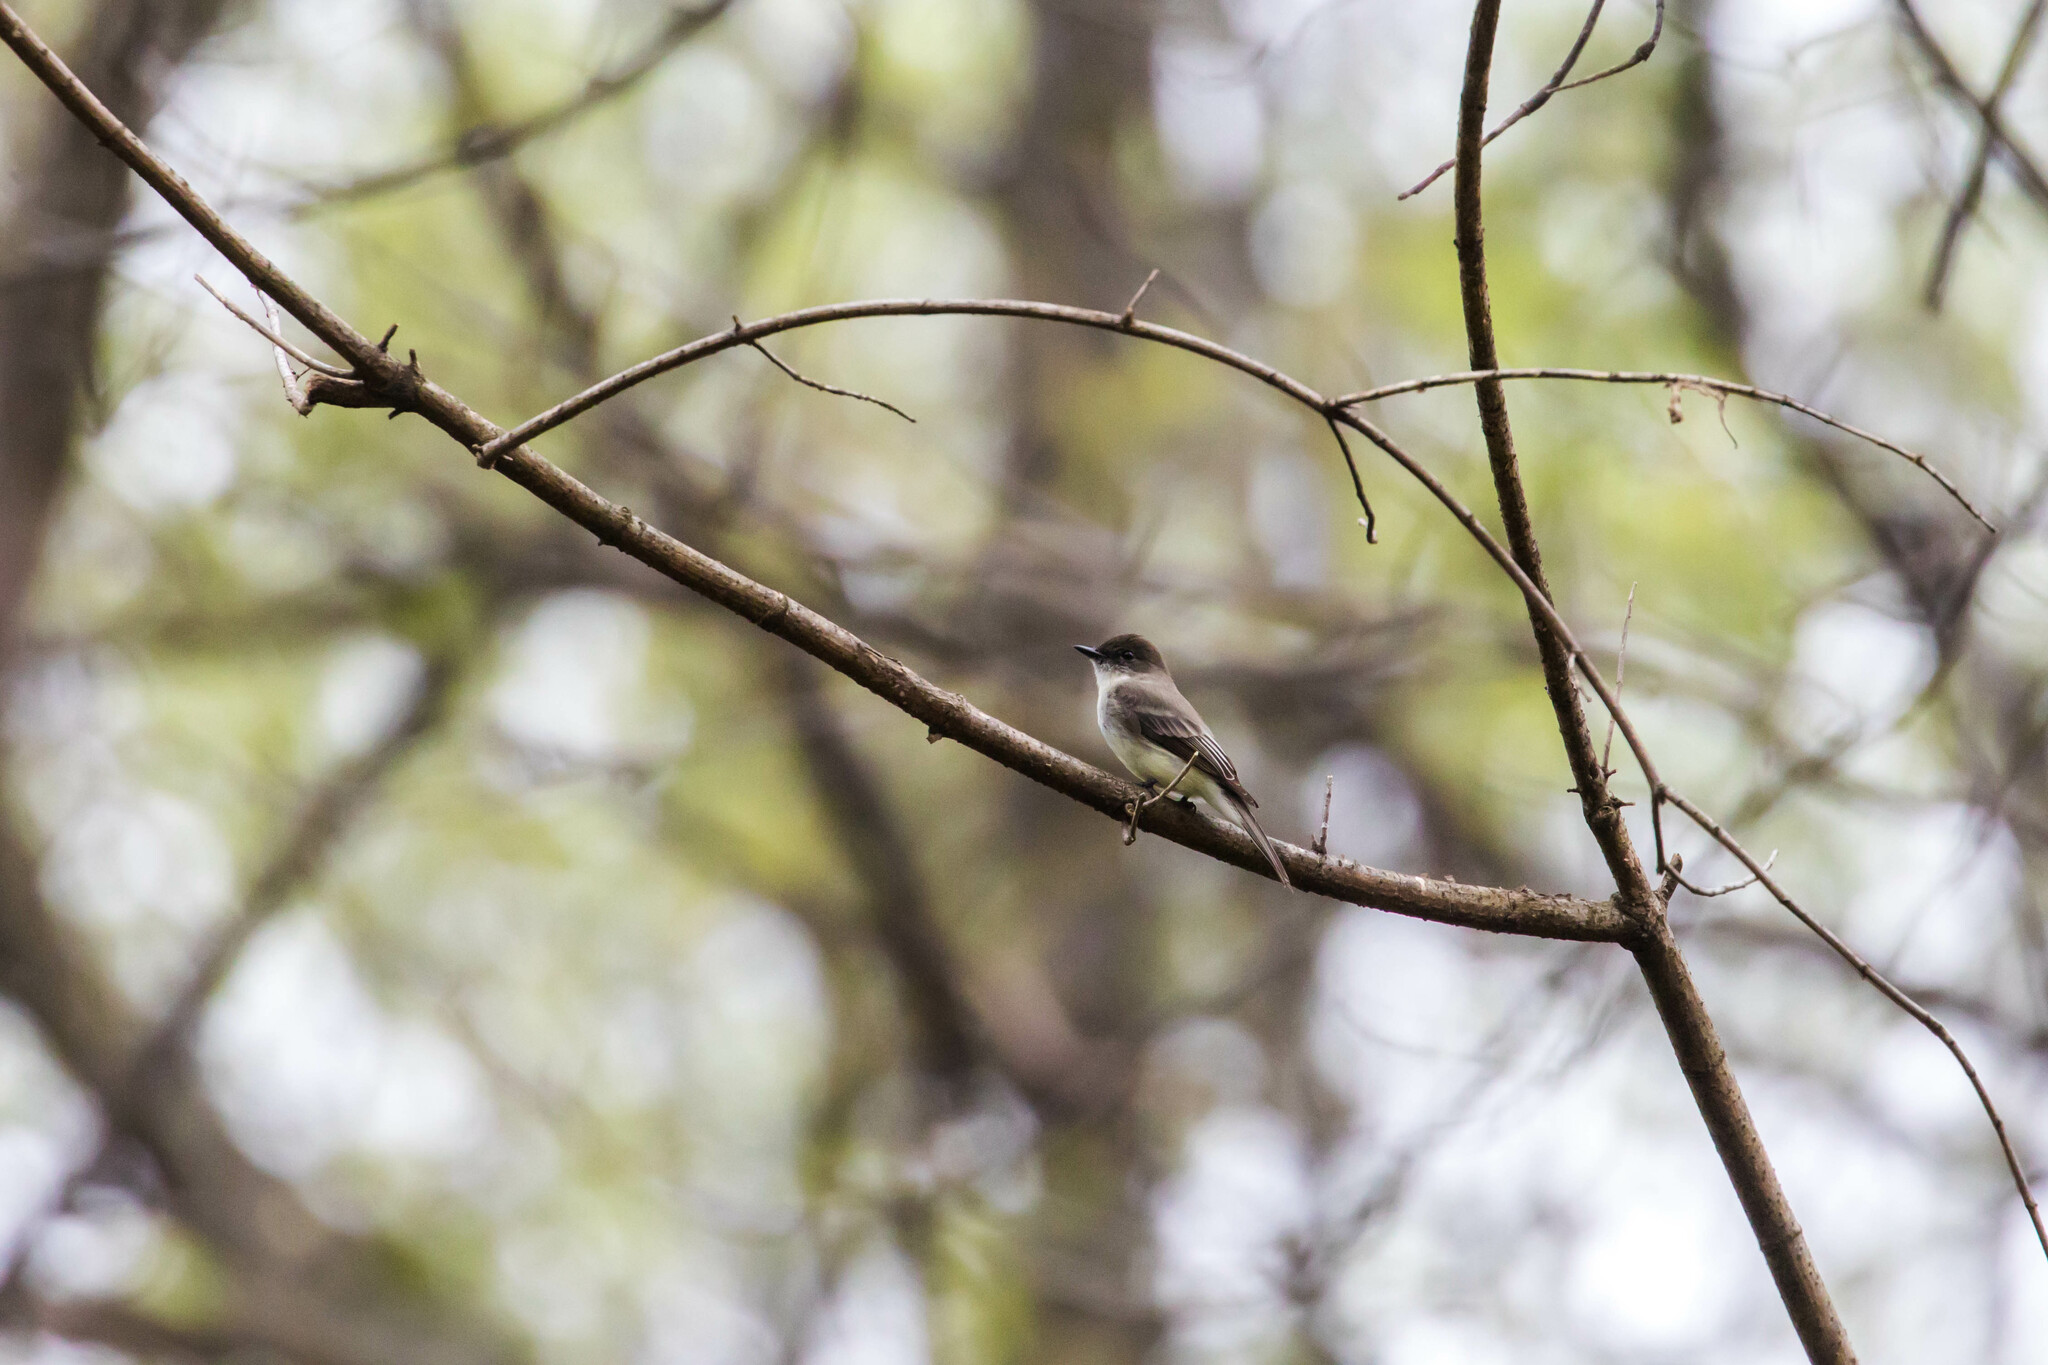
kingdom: Animalia
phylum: Chordata
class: Aves
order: Passeriformes
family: Tyrannidae
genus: Sayornis
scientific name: Sayornis phoebe
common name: Eastern phoebe
